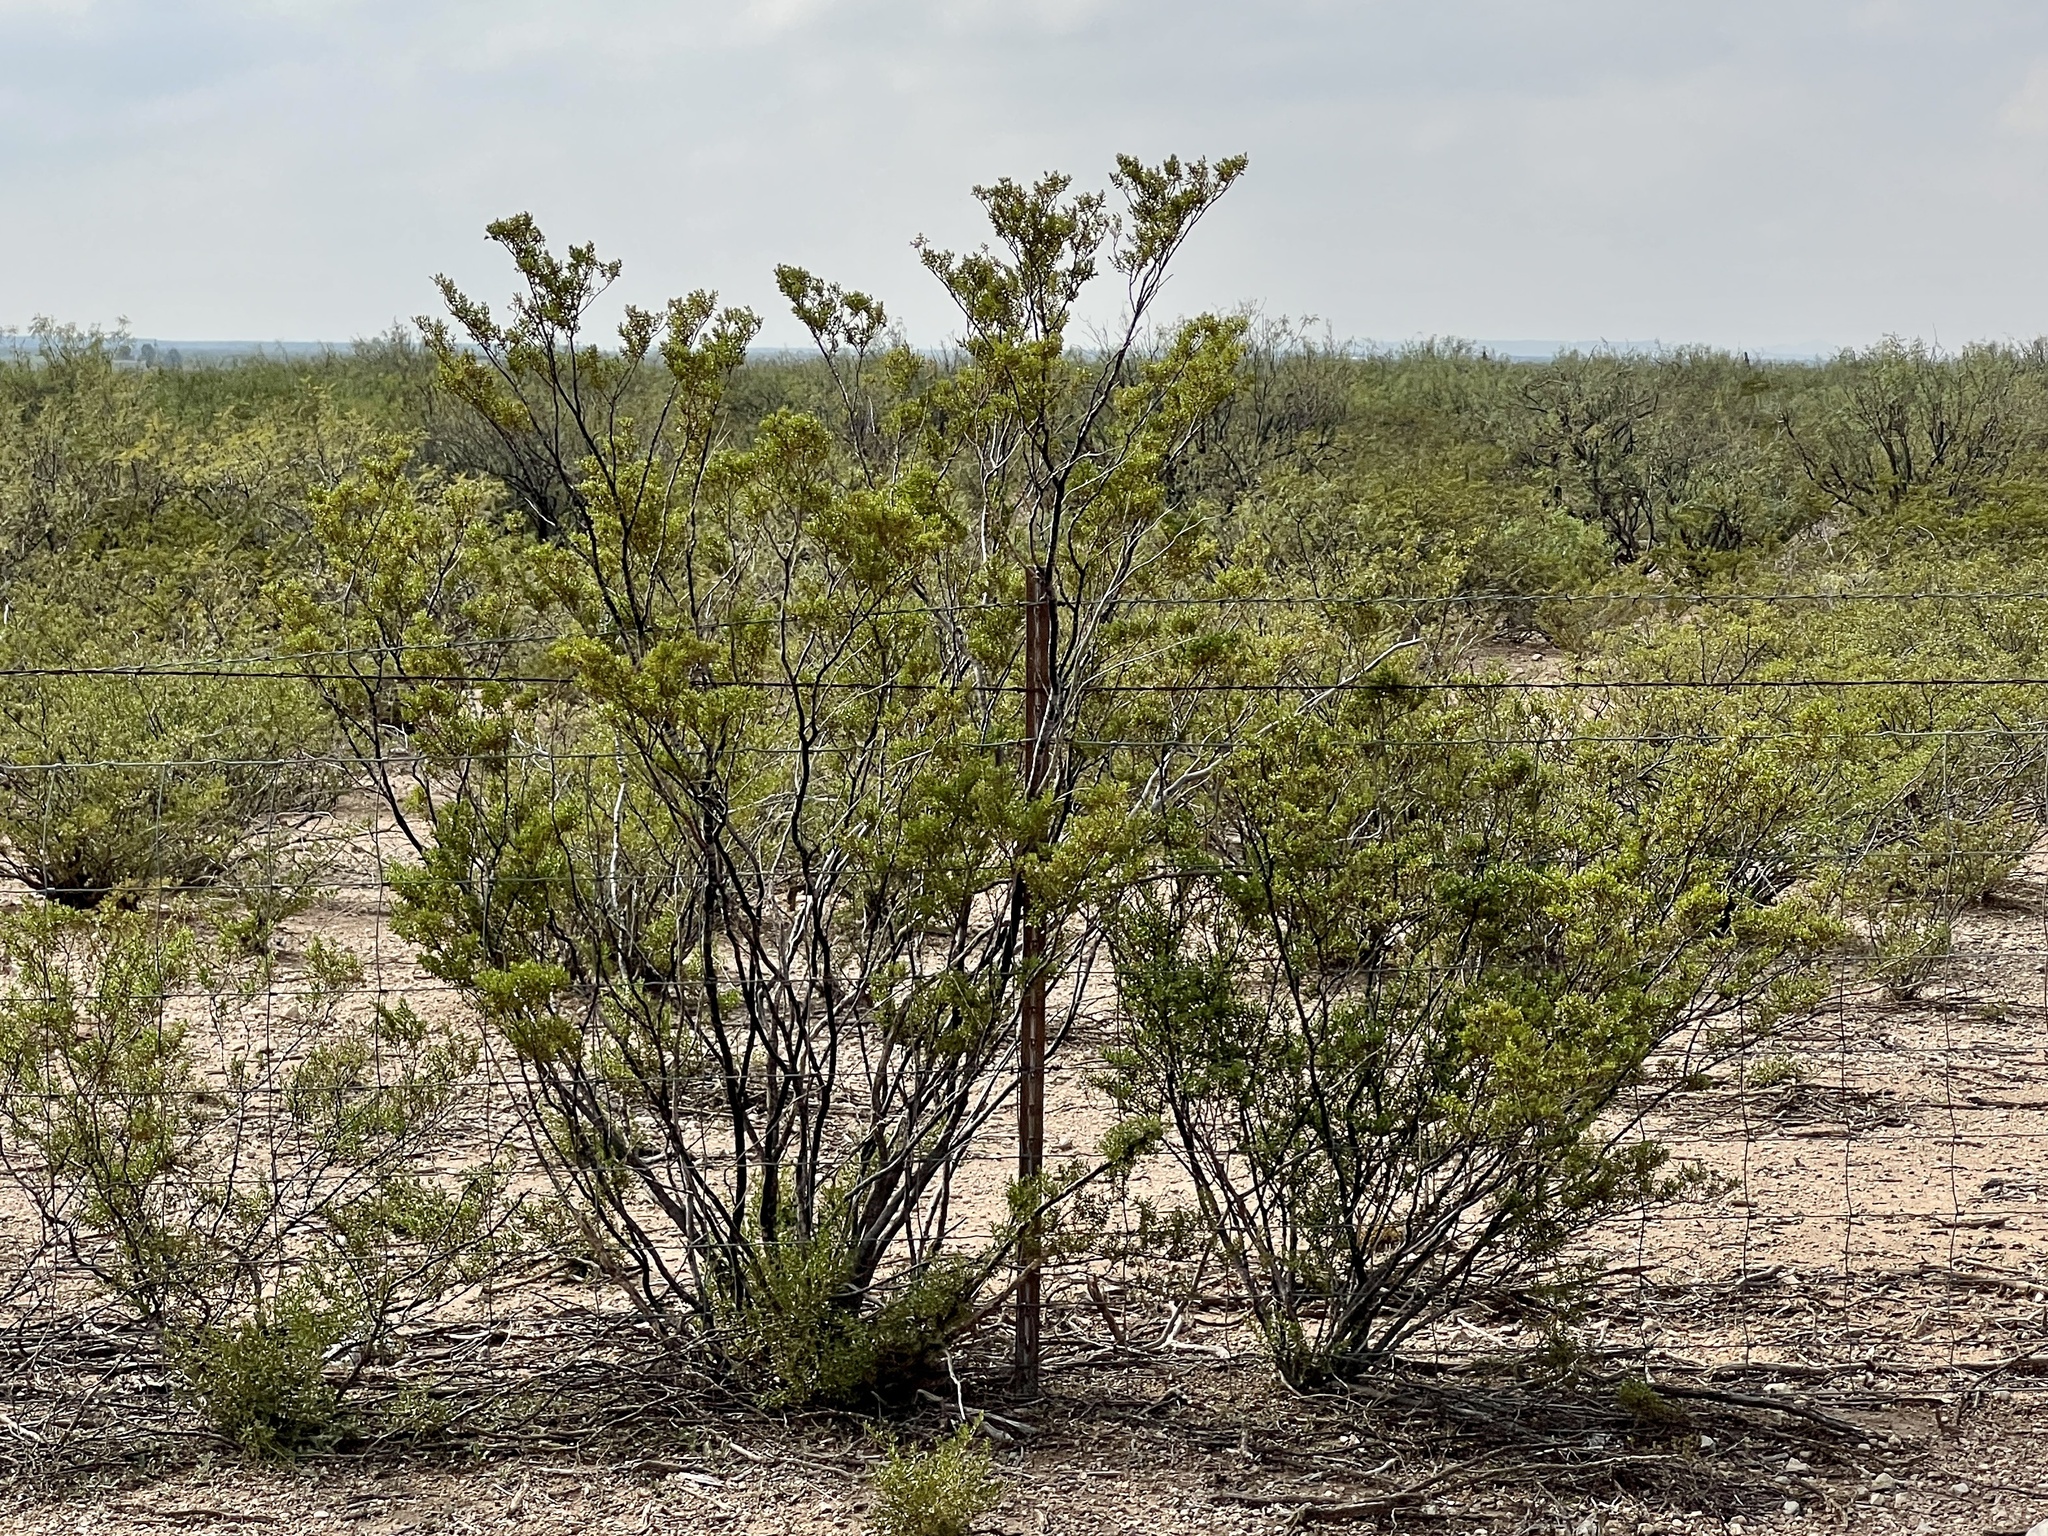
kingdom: Plantae
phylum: Tracheophyta
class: Magnoliopsida
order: Zygophyllales
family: Zygophyllaceae
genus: Larrea
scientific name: Larrea tridentata
